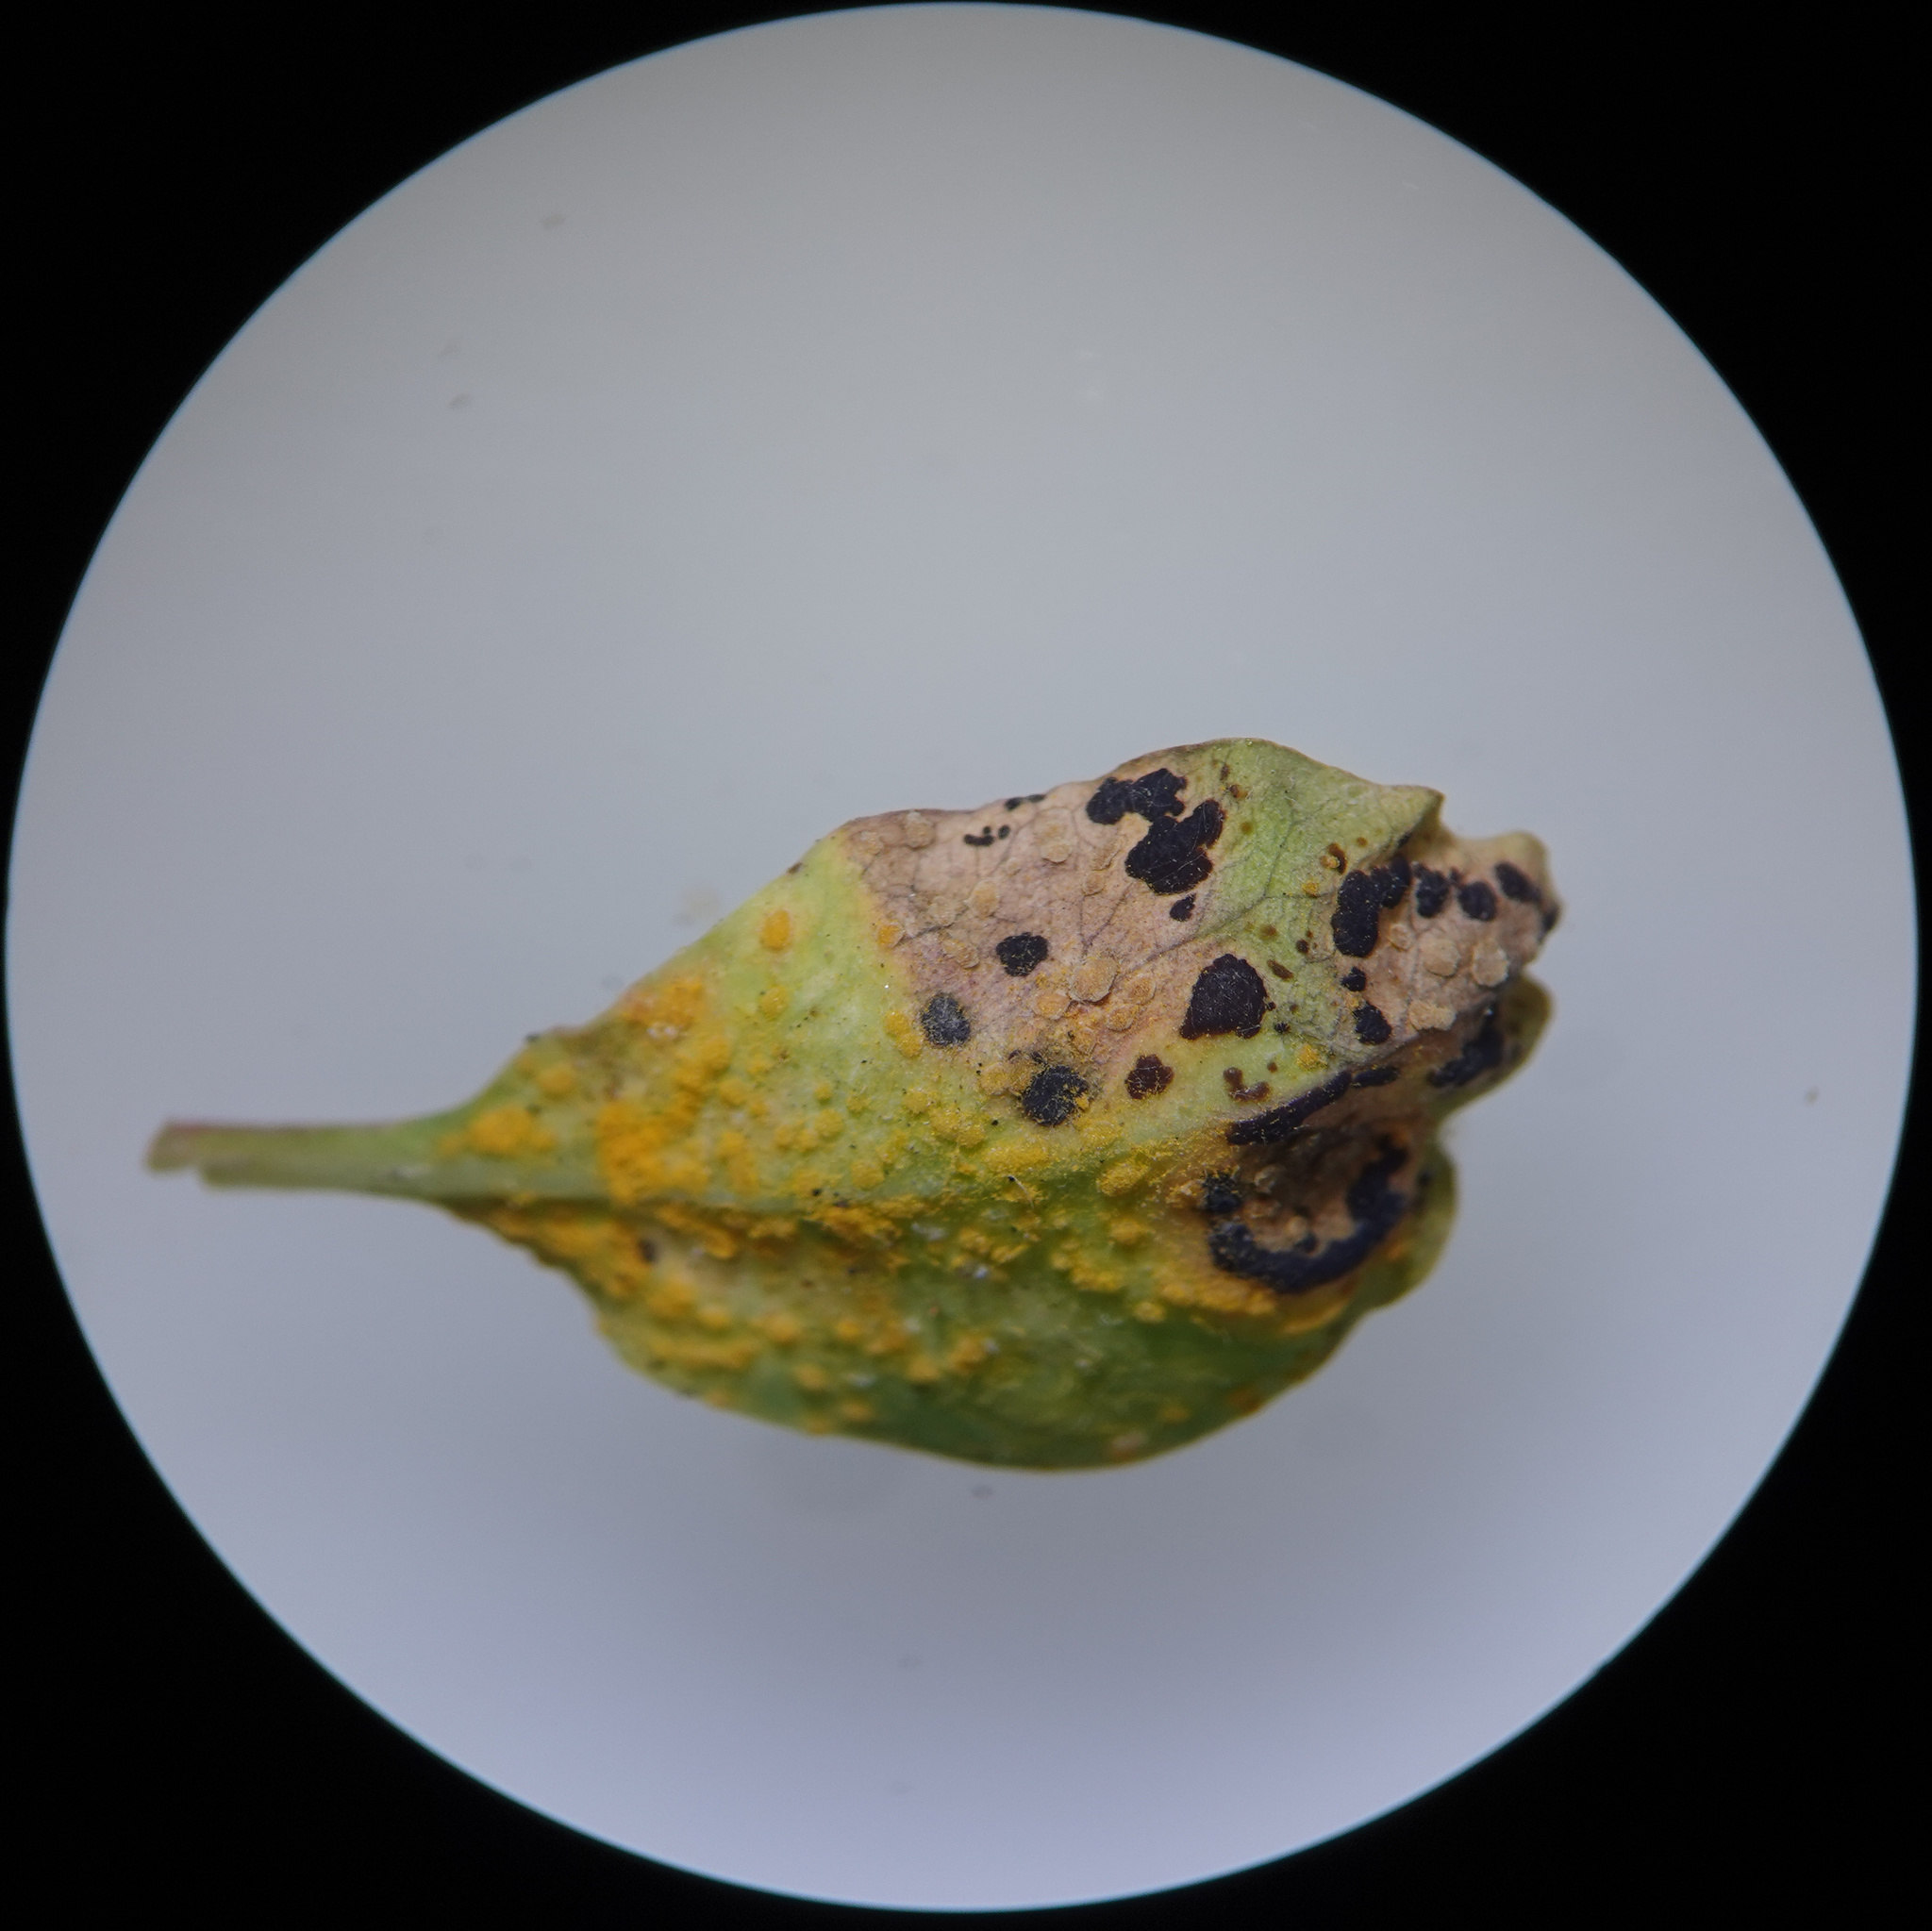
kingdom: Fungi
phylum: Basidiomycota
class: Pucciniomycetes
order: Pucciniales
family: Melampsoraceae
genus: Melampsora
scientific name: Melampsora euphorbiae
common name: Spurge rust
